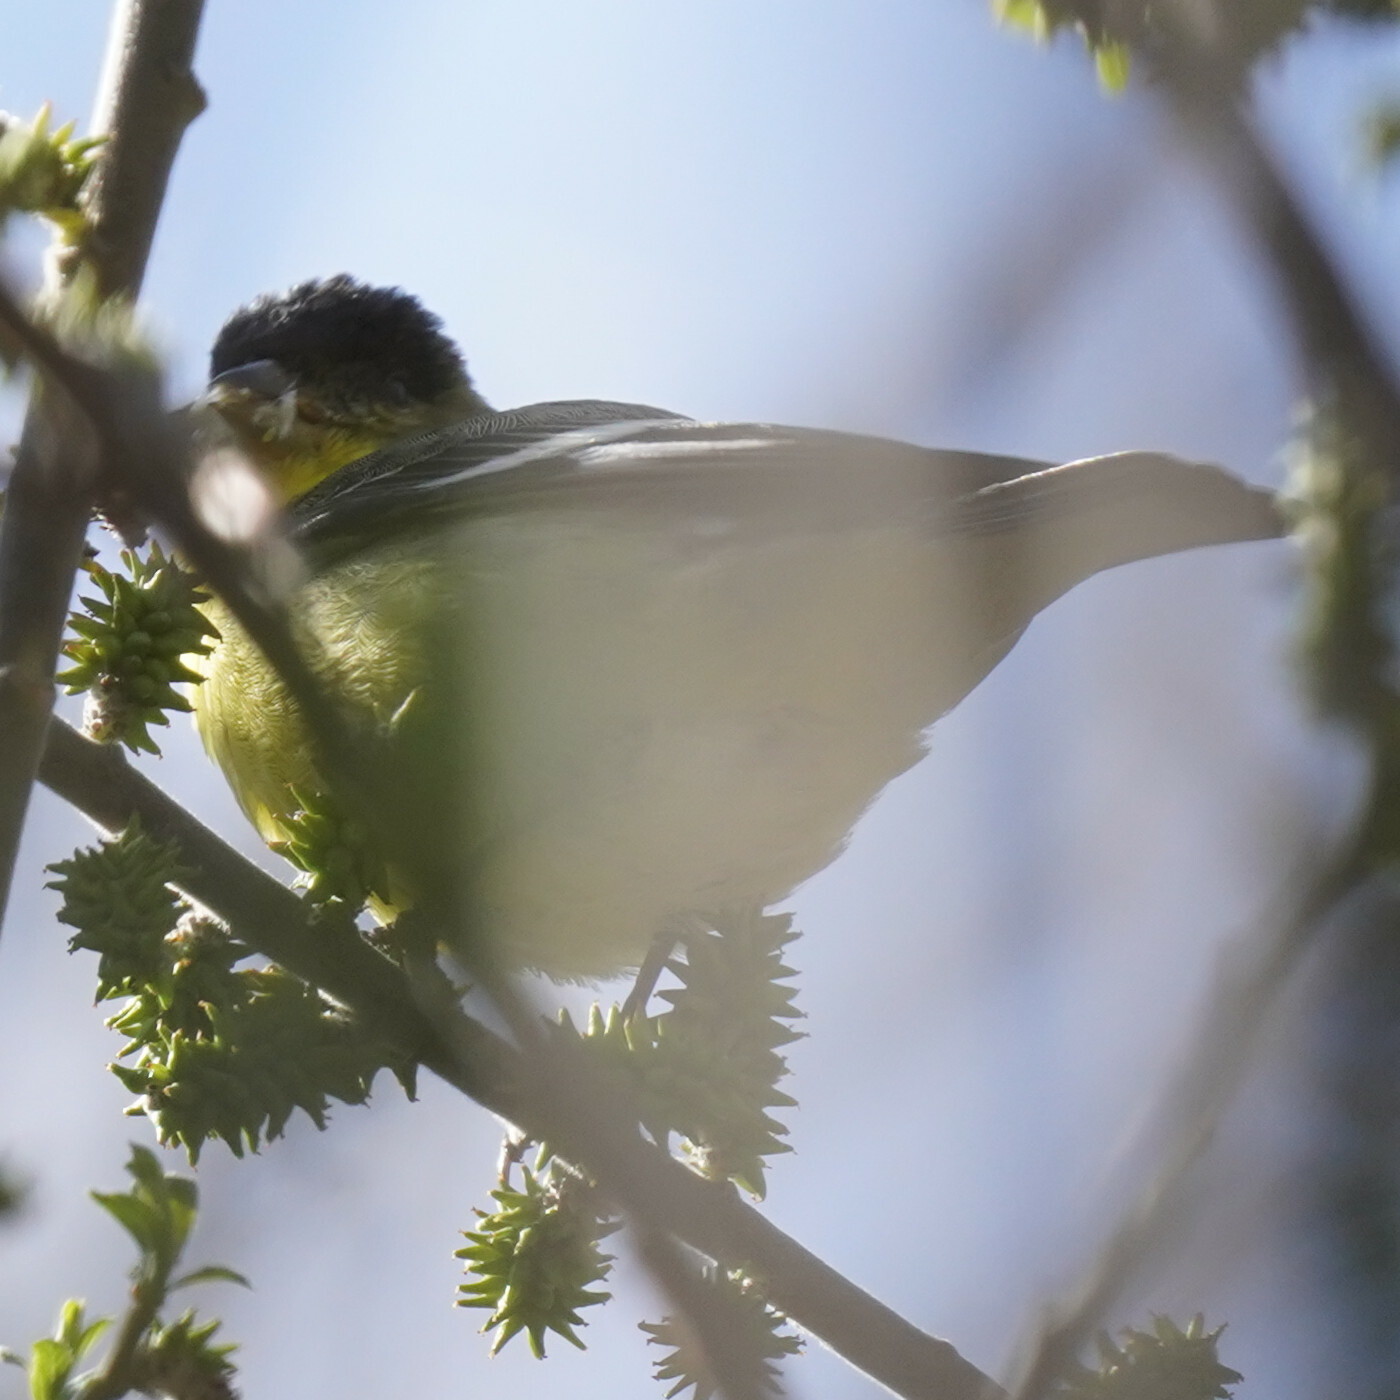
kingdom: Animalia
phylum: Chordata
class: Aves
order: Passeriformes
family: Fringillidae
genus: Spinus
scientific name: Spinus psaltria
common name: Lesser goldfinch
